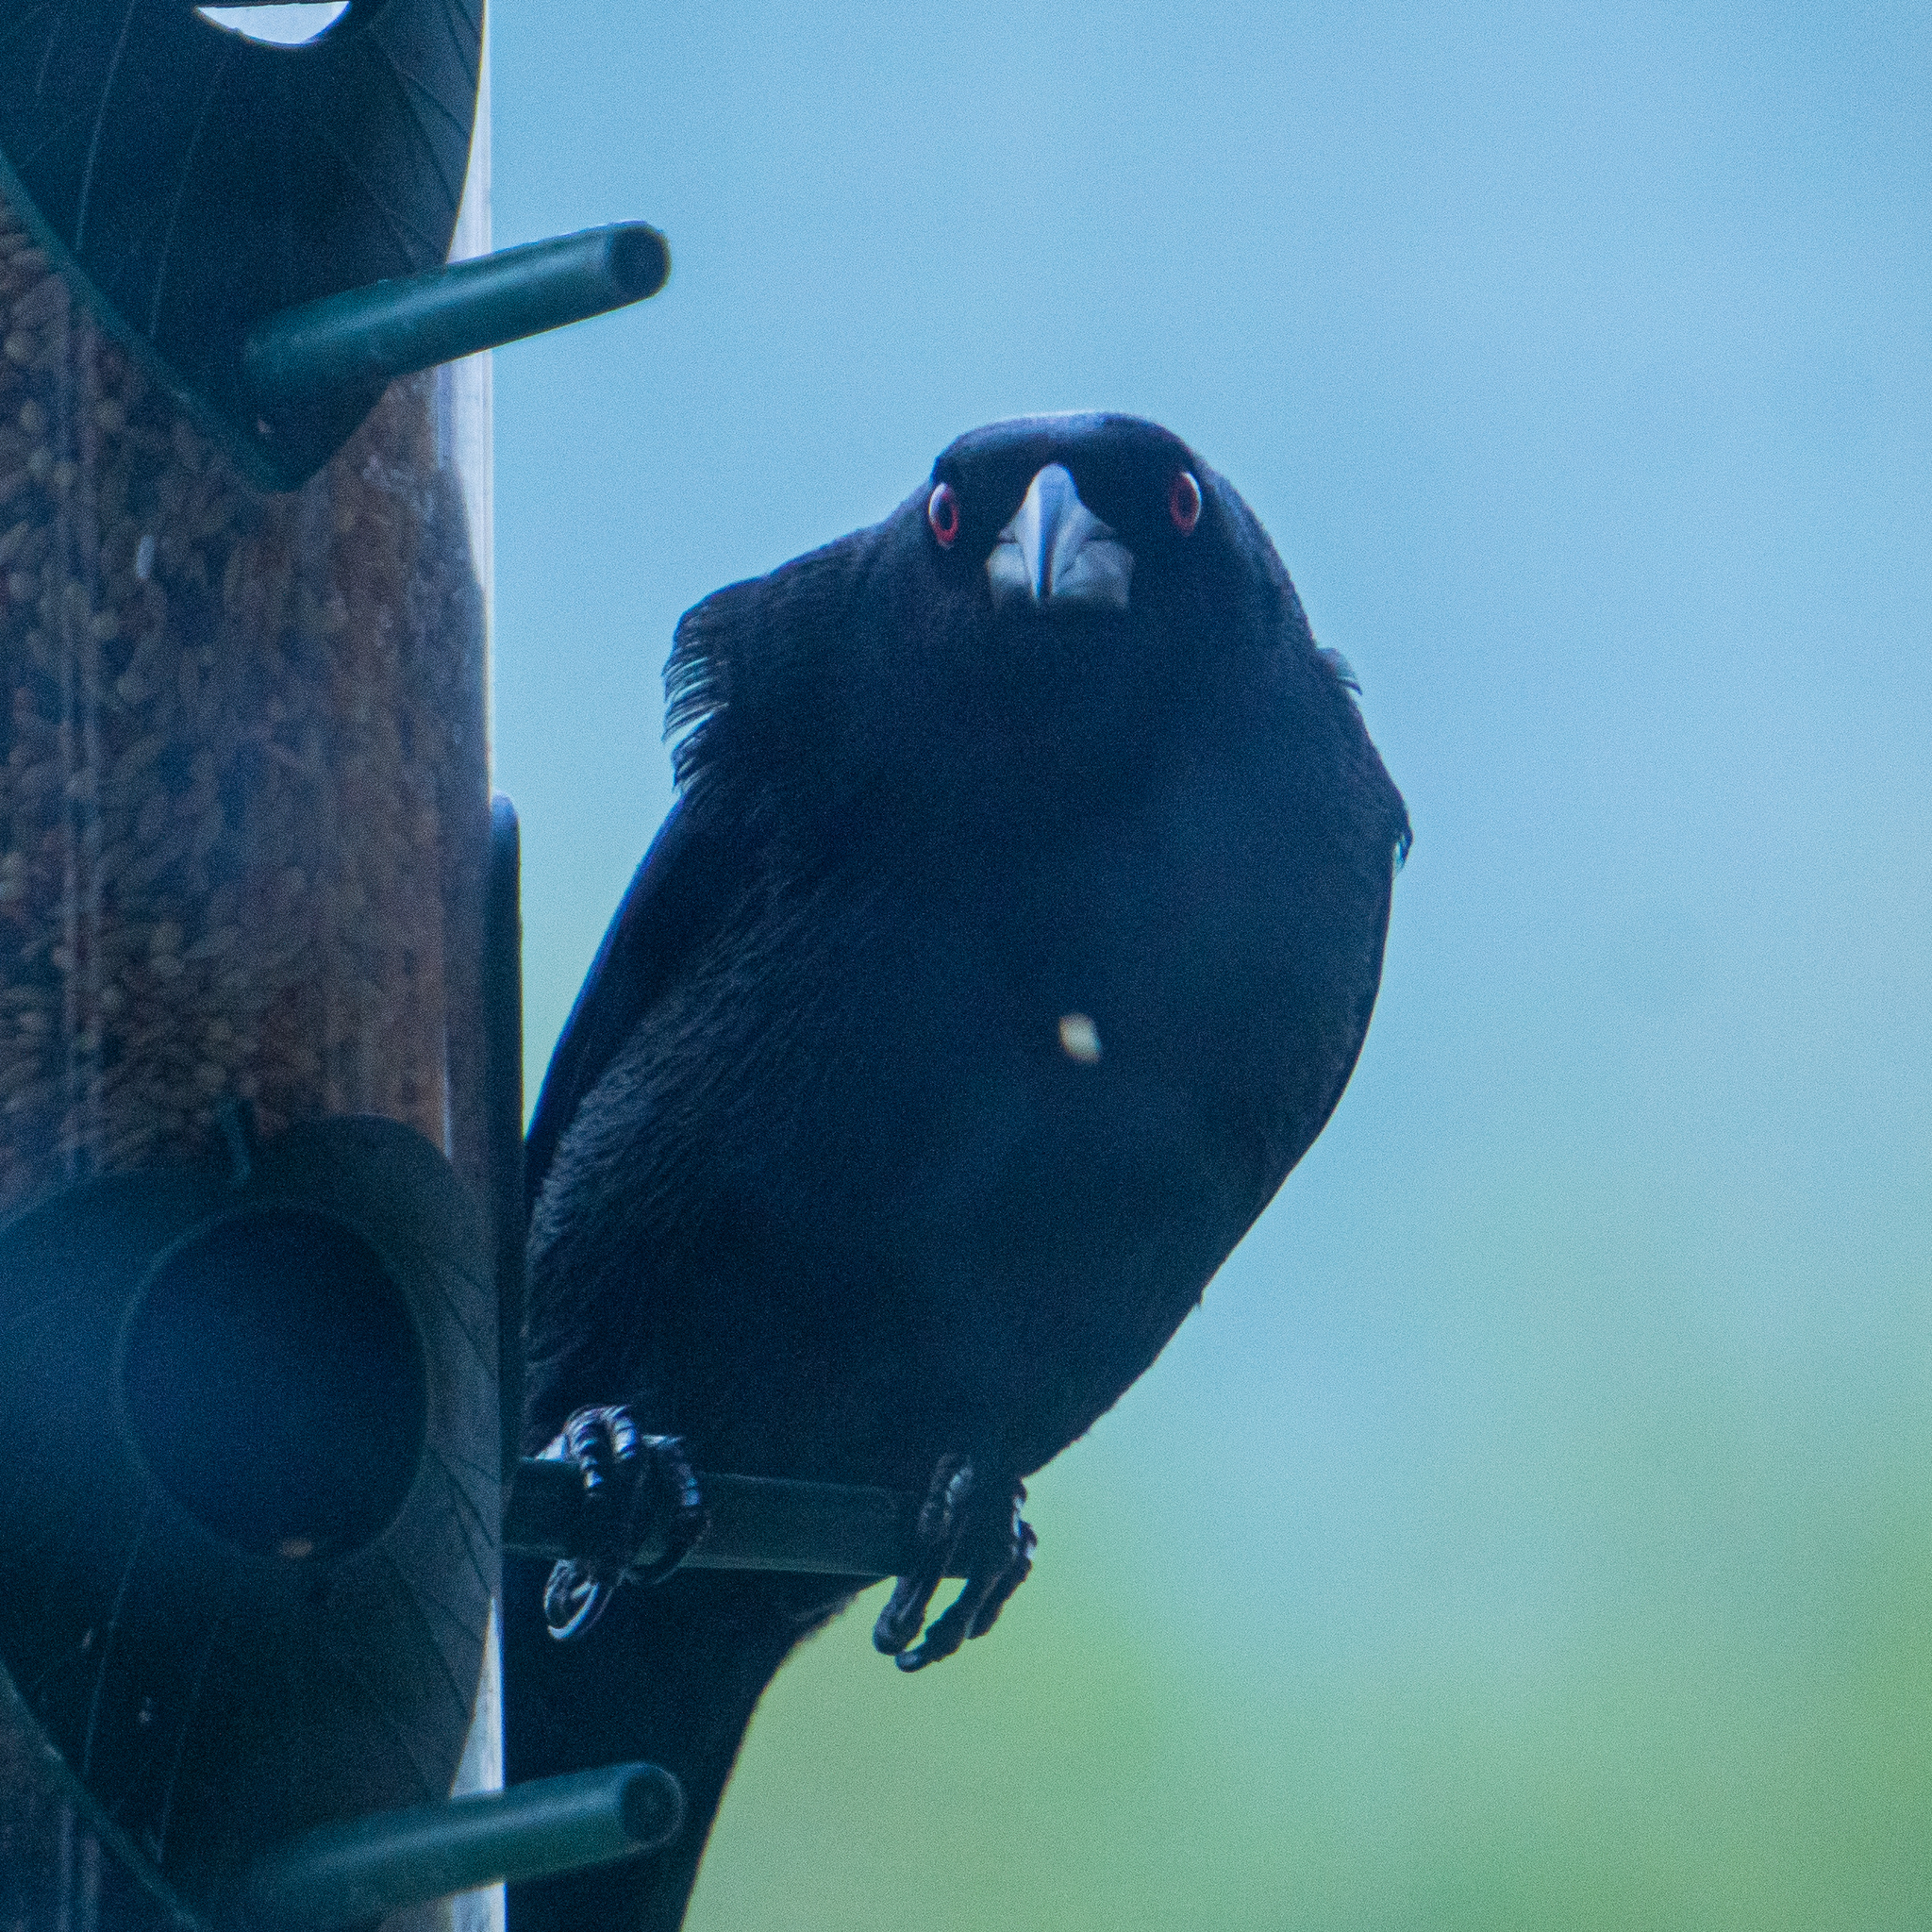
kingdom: Animalia
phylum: Chordata
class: Aves
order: Passeriformes
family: Icteridae
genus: Molothrus
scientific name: Molothrus aeneus
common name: Bronzed cowbird
